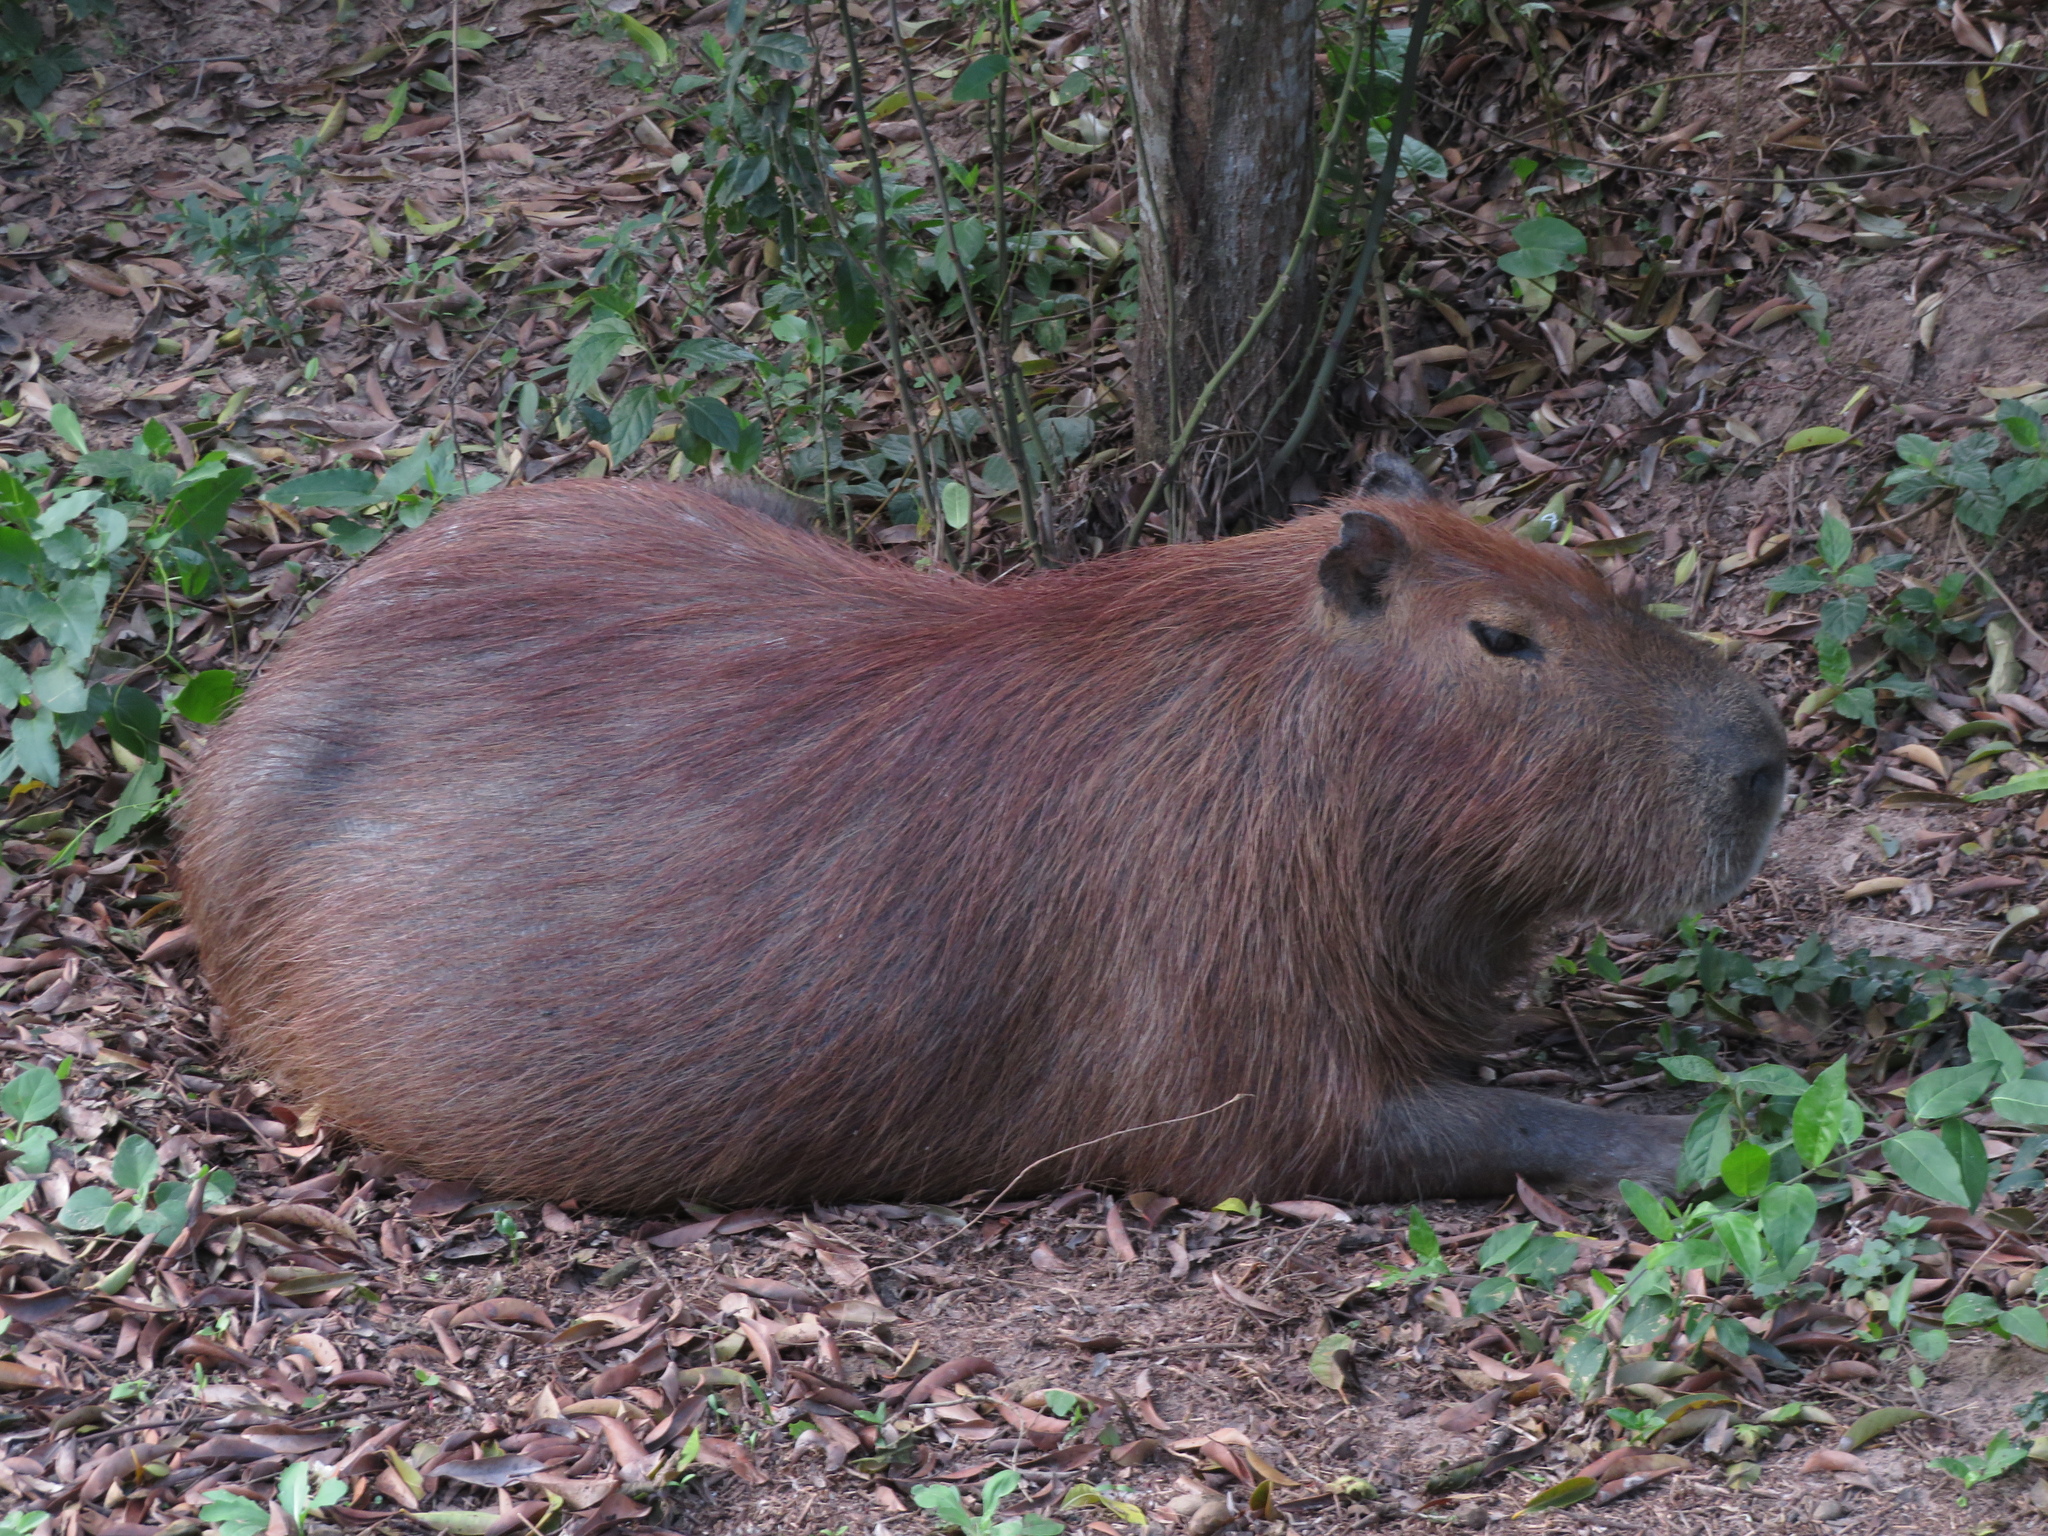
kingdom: Animalia
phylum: Chordata
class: Mammalia
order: Rodentia
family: Caviidae
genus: Hydrochoerus
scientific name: Hydrochoerus hydrochaeris
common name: Capybara
